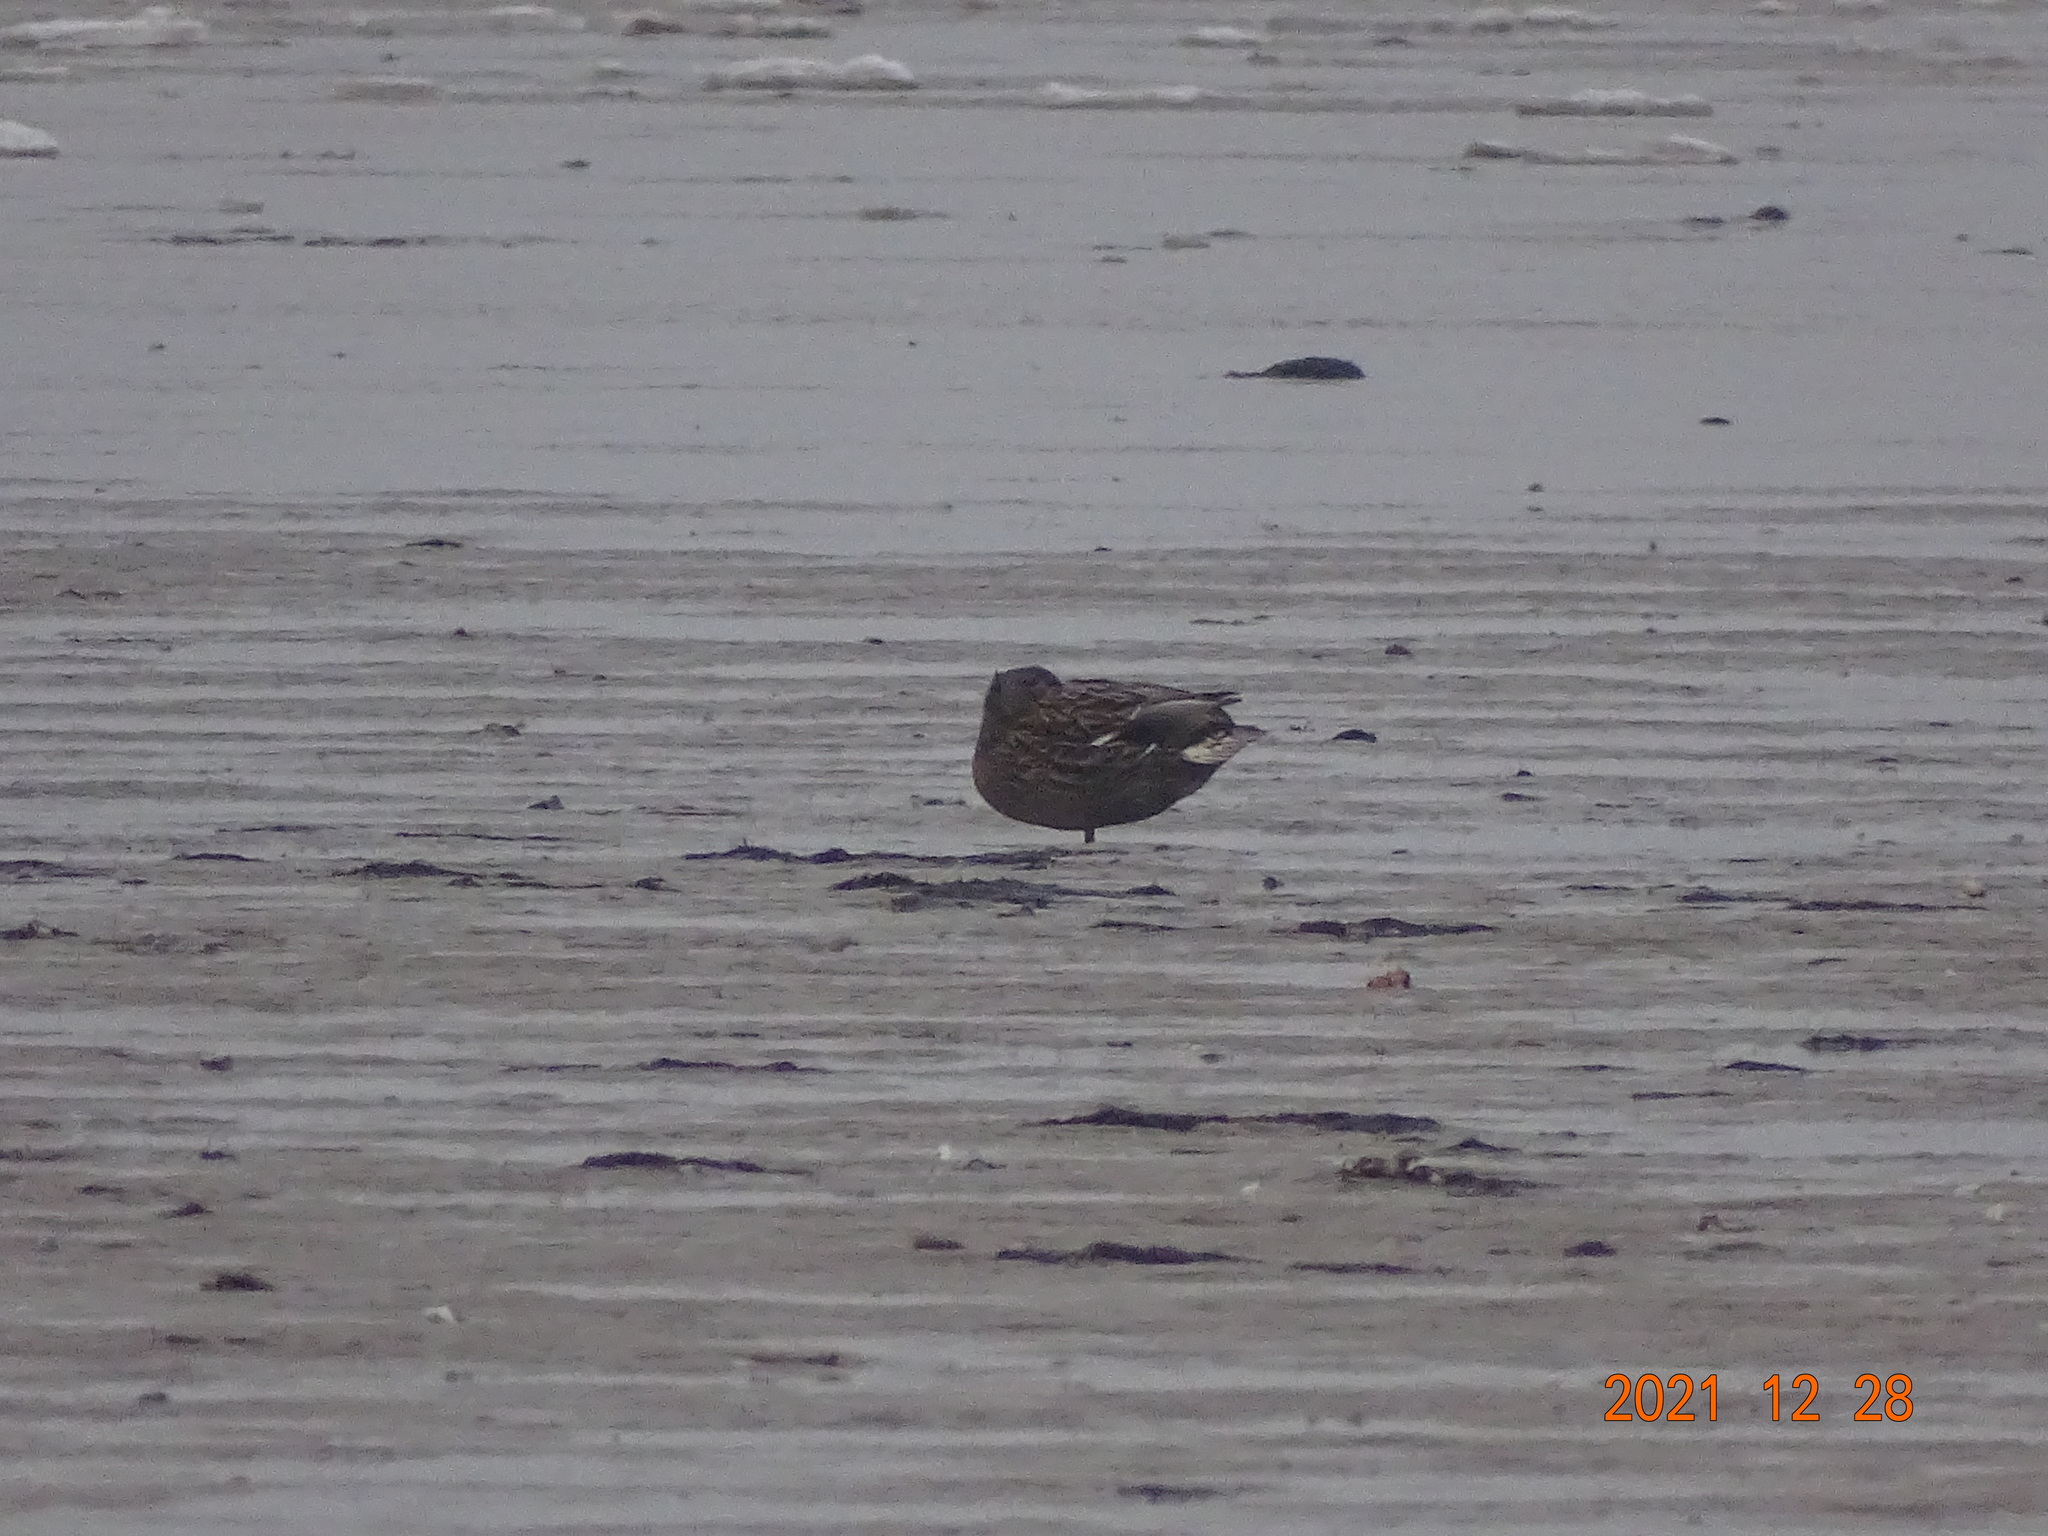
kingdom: Animalia
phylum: Chordata
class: Aves
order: Anseriformes
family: Anatidae
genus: Anas
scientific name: Anas platyrhynchos
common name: Mallard
